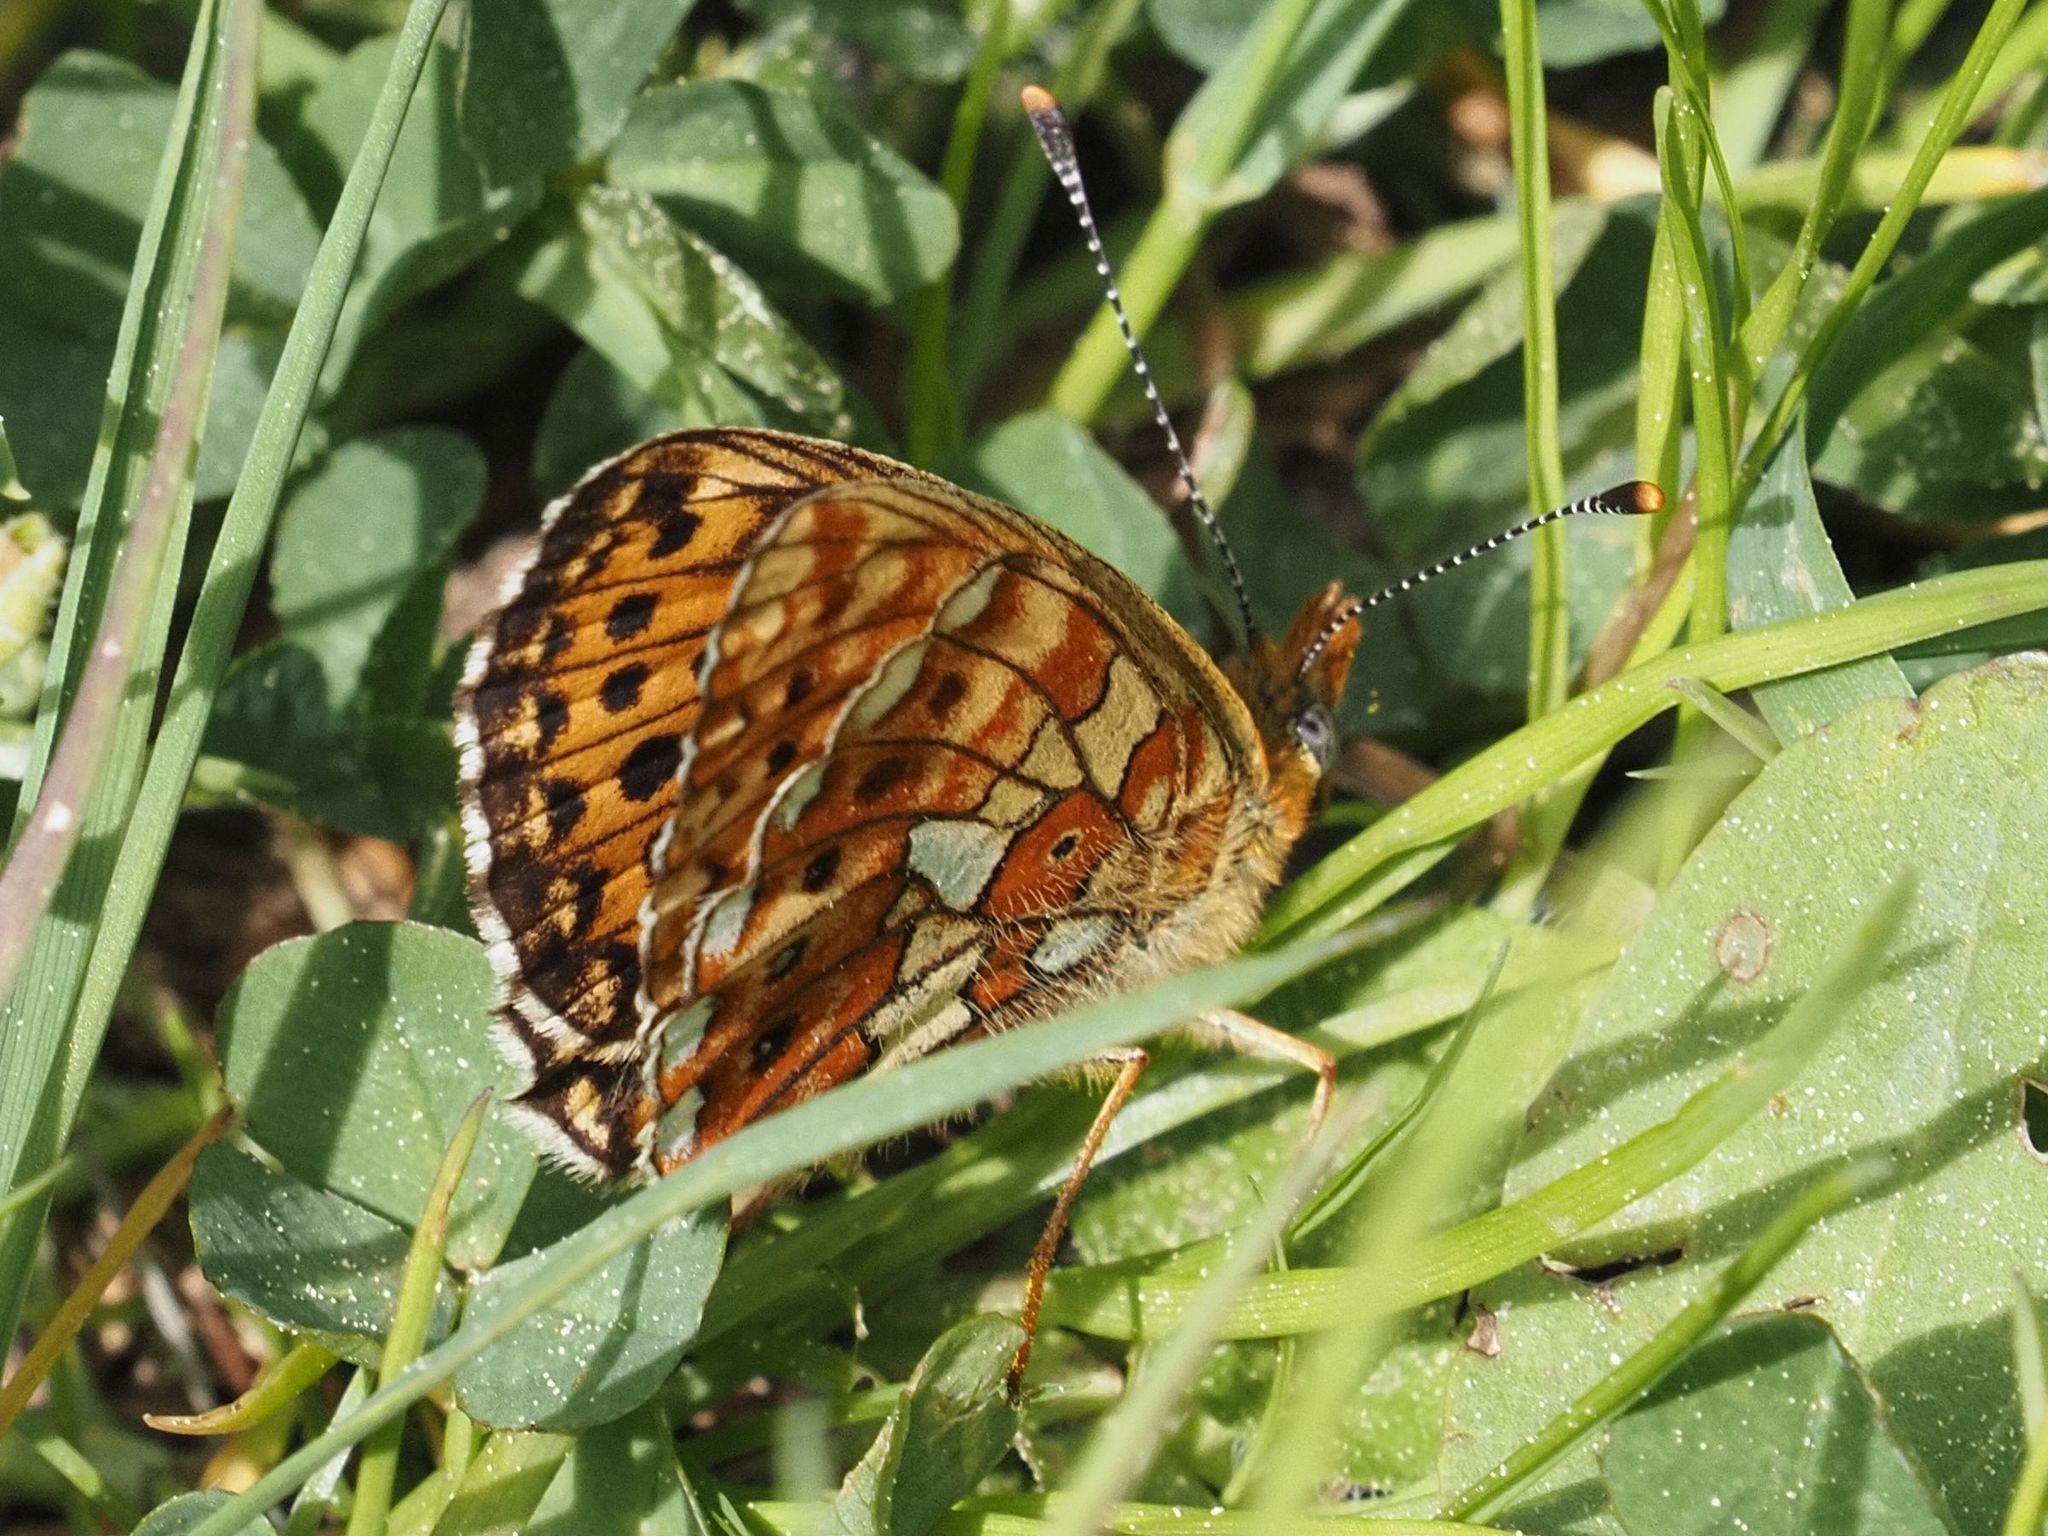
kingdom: Animalia
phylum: Arthropoda
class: Insecta
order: Lepidoptera
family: Nymphalidae
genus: Clossiana
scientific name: Clossiana euphrosyne
